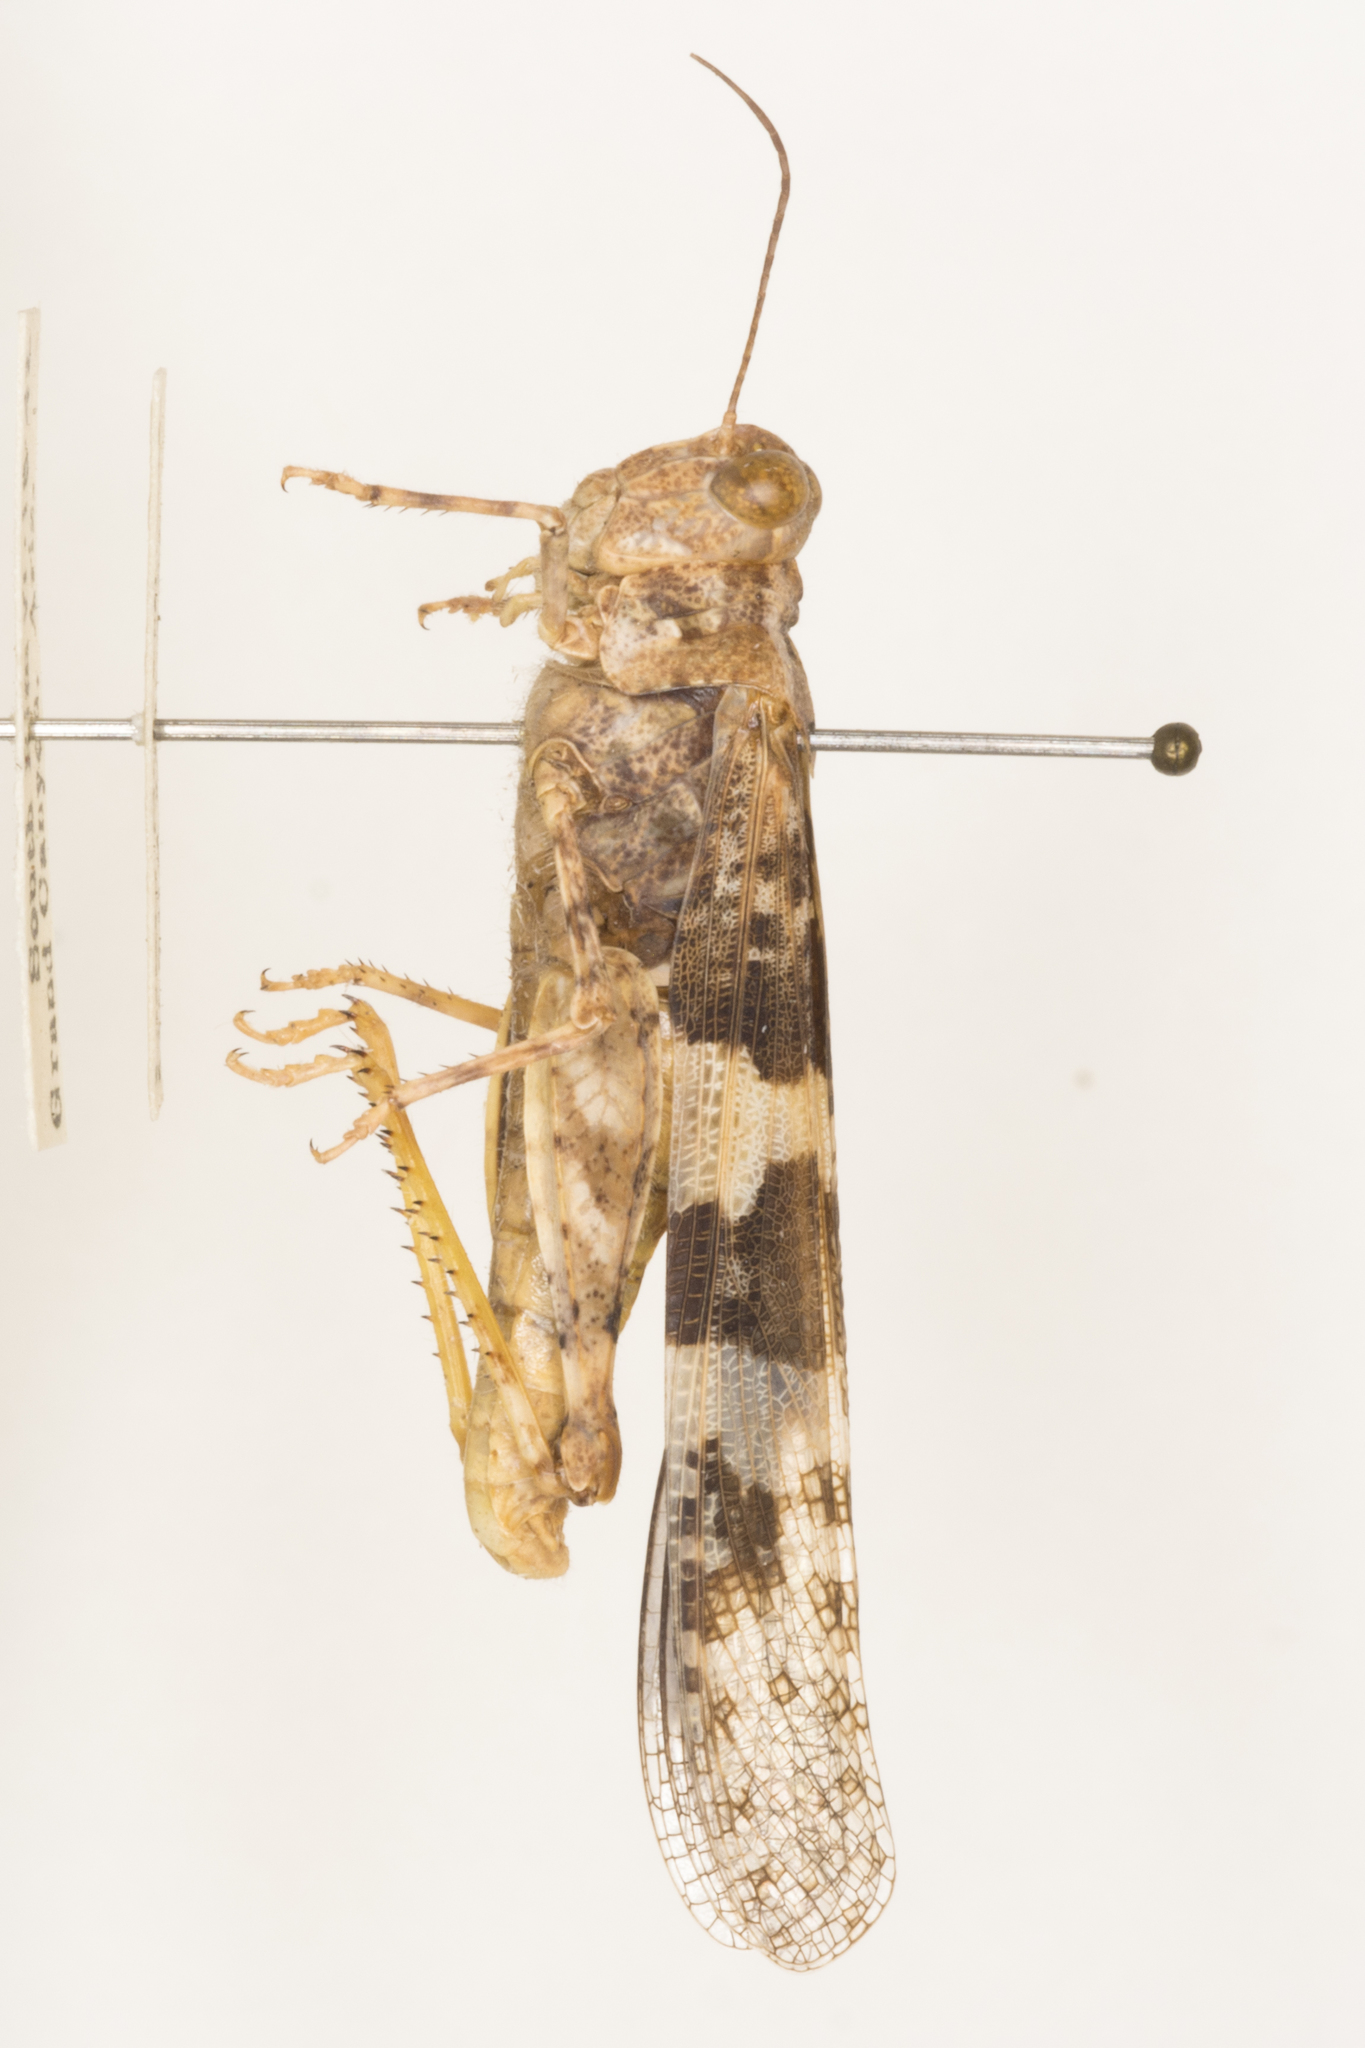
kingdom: Animalia
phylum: Arthropoda
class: Insecta
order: Orthoptera
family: Acrididae
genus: Trimerotropis
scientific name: Trimerotropis pallidipennis
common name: Pallid-winged grasshopper
